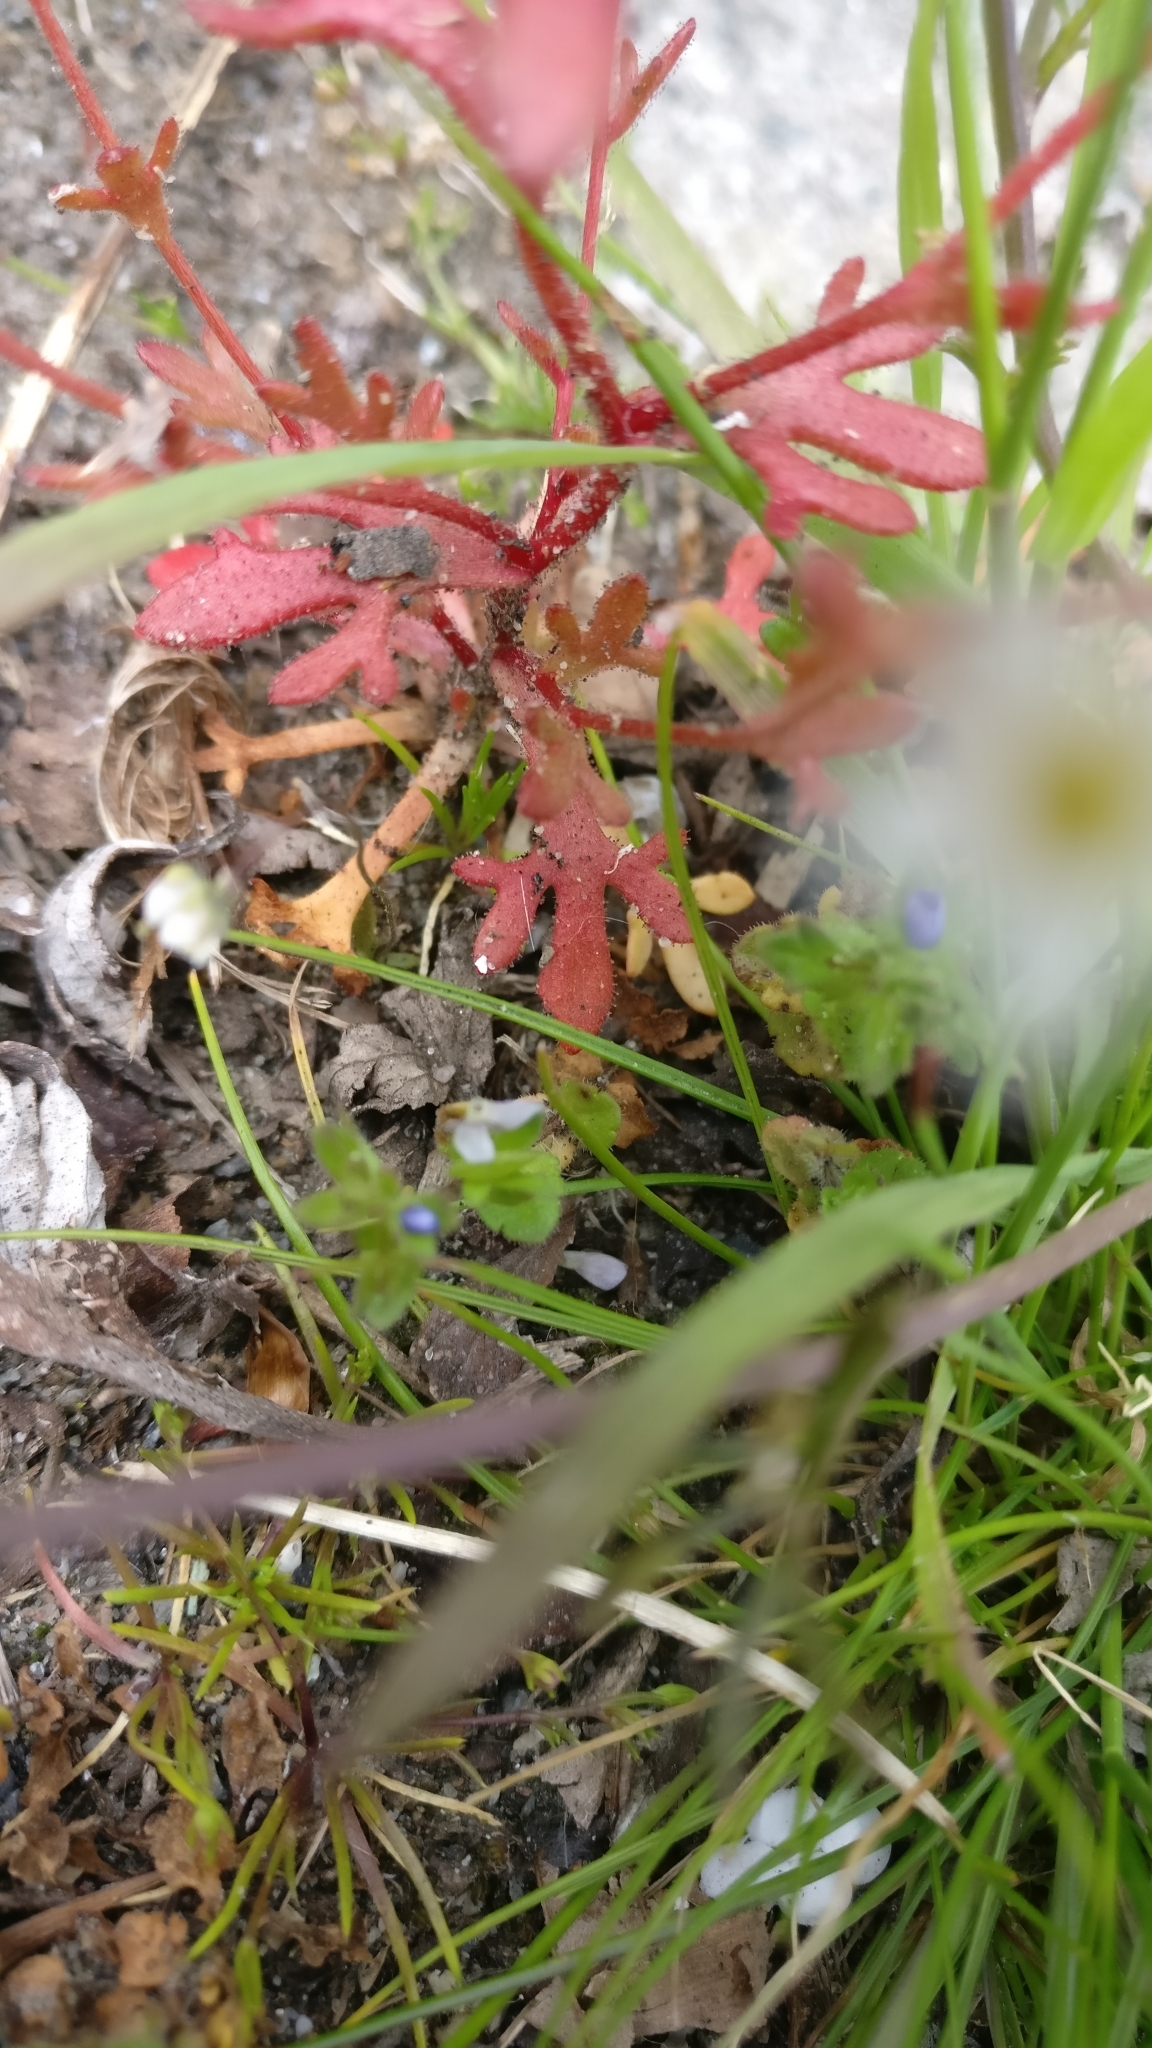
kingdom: Plantae
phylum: Tracheophyta
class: Magnoliopsida
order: Saxifragales
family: Saxifragaceae
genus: Saxifraga
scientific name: Saxifraga tridactylites
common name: Rue-leaved saxifrage
